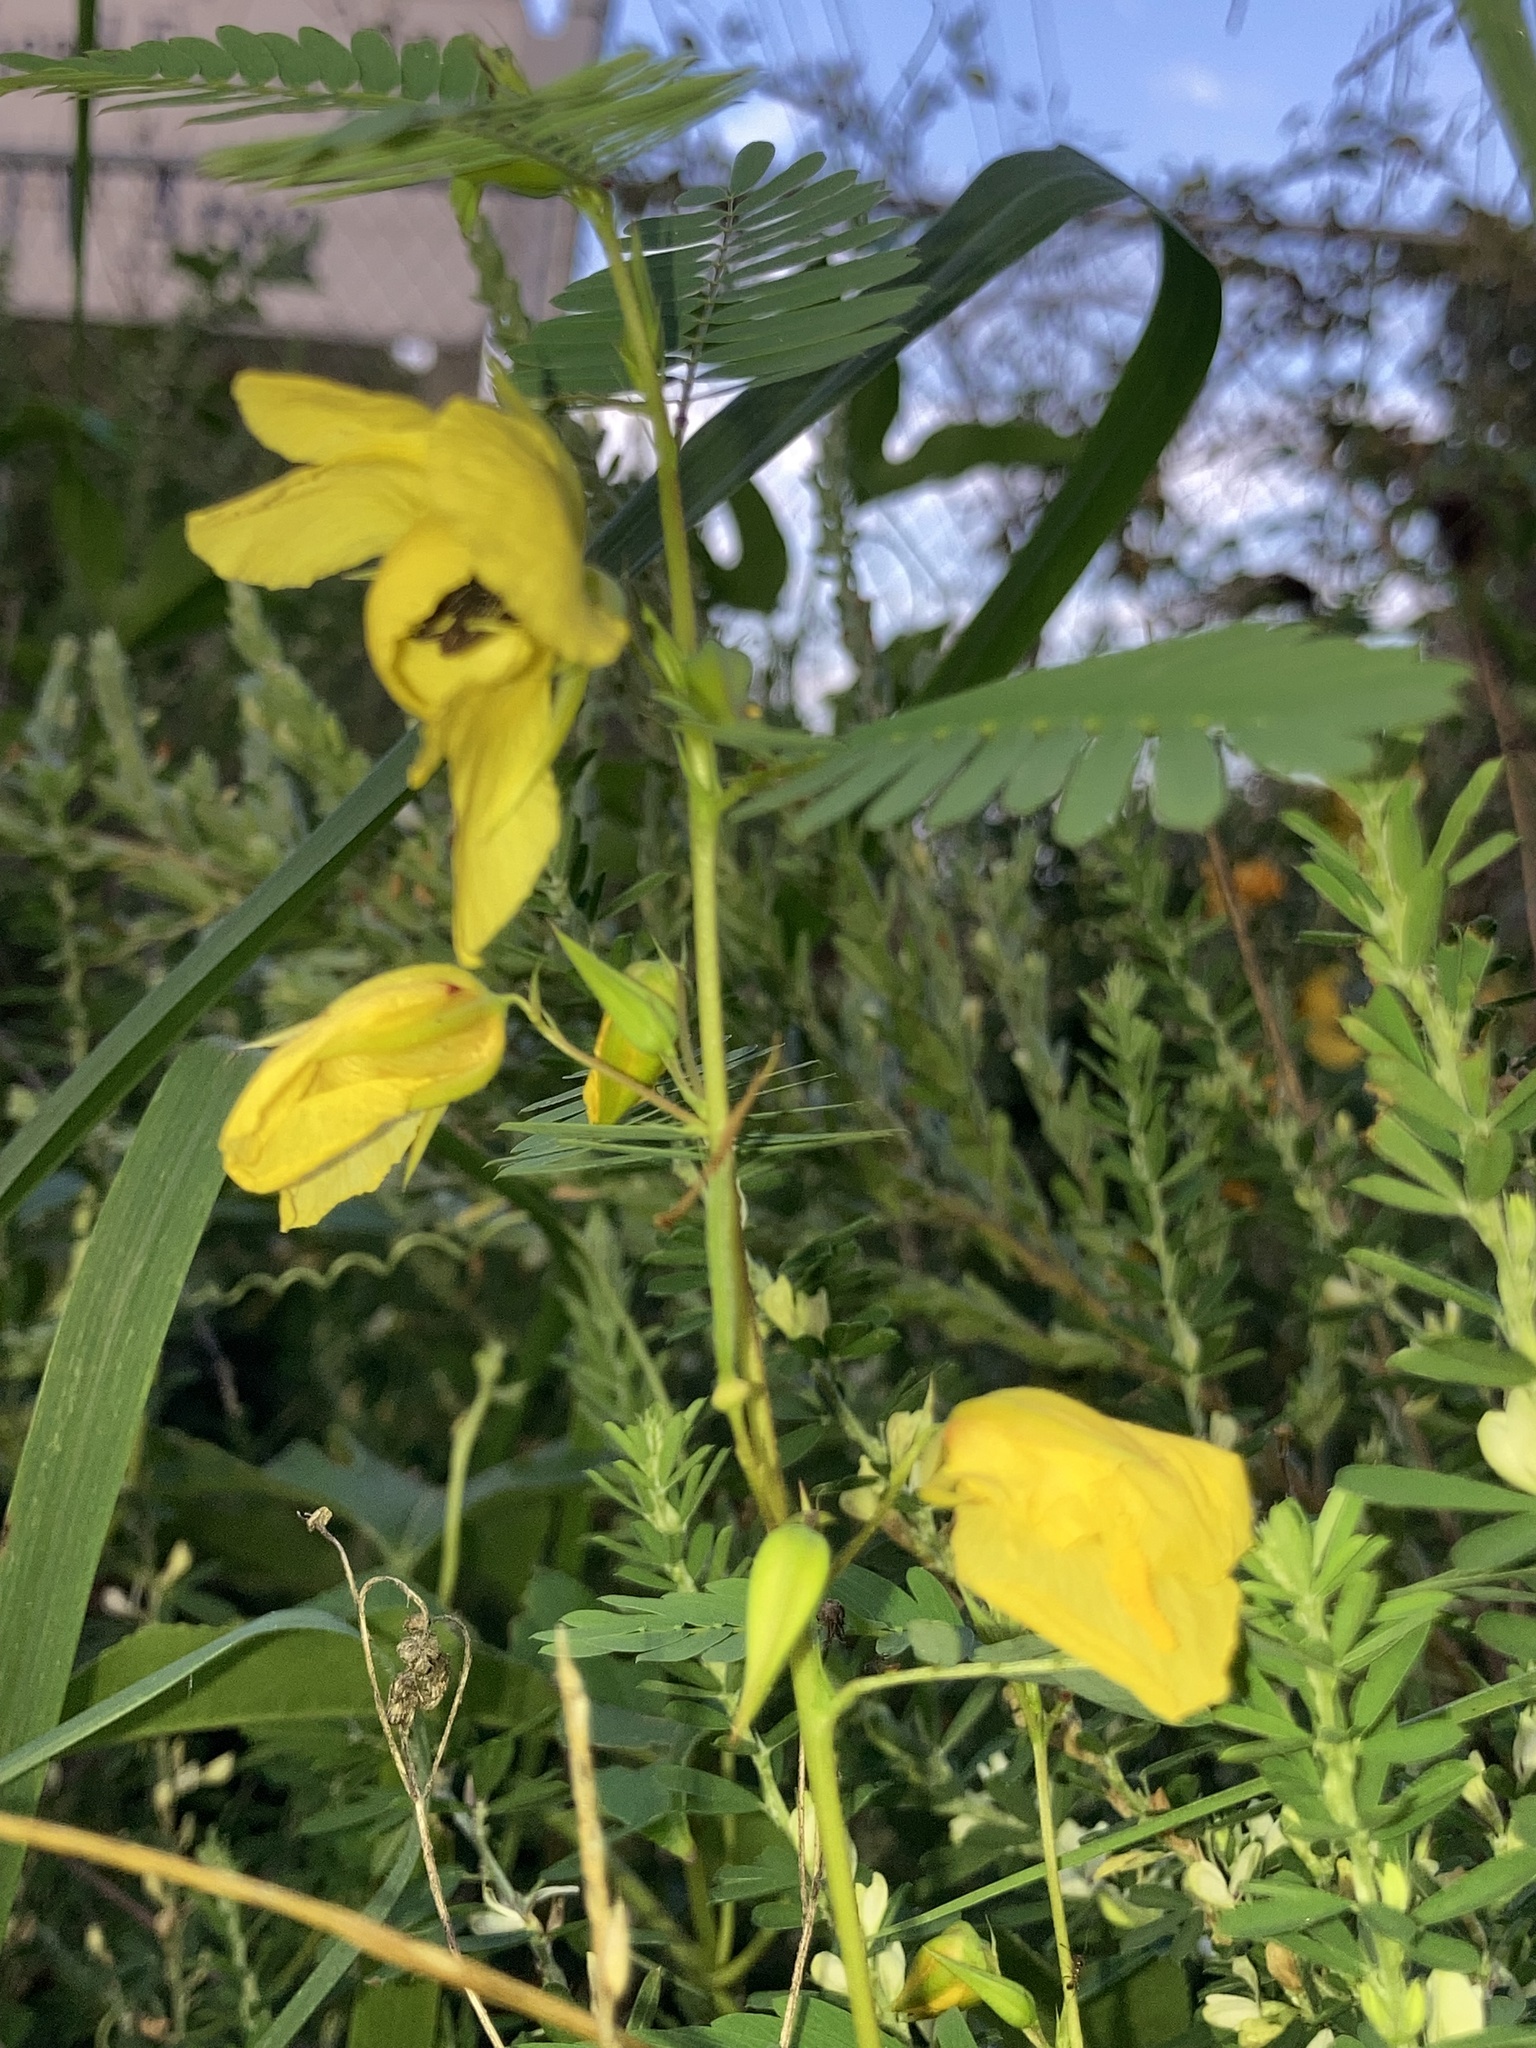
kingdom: Plantae
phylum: Tracheophyta
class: Magnoliopsida
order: Fabales
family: Fabaceae
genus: Chamaecrista
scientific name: Chamaecrista fasciculata
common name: Golden cassia
